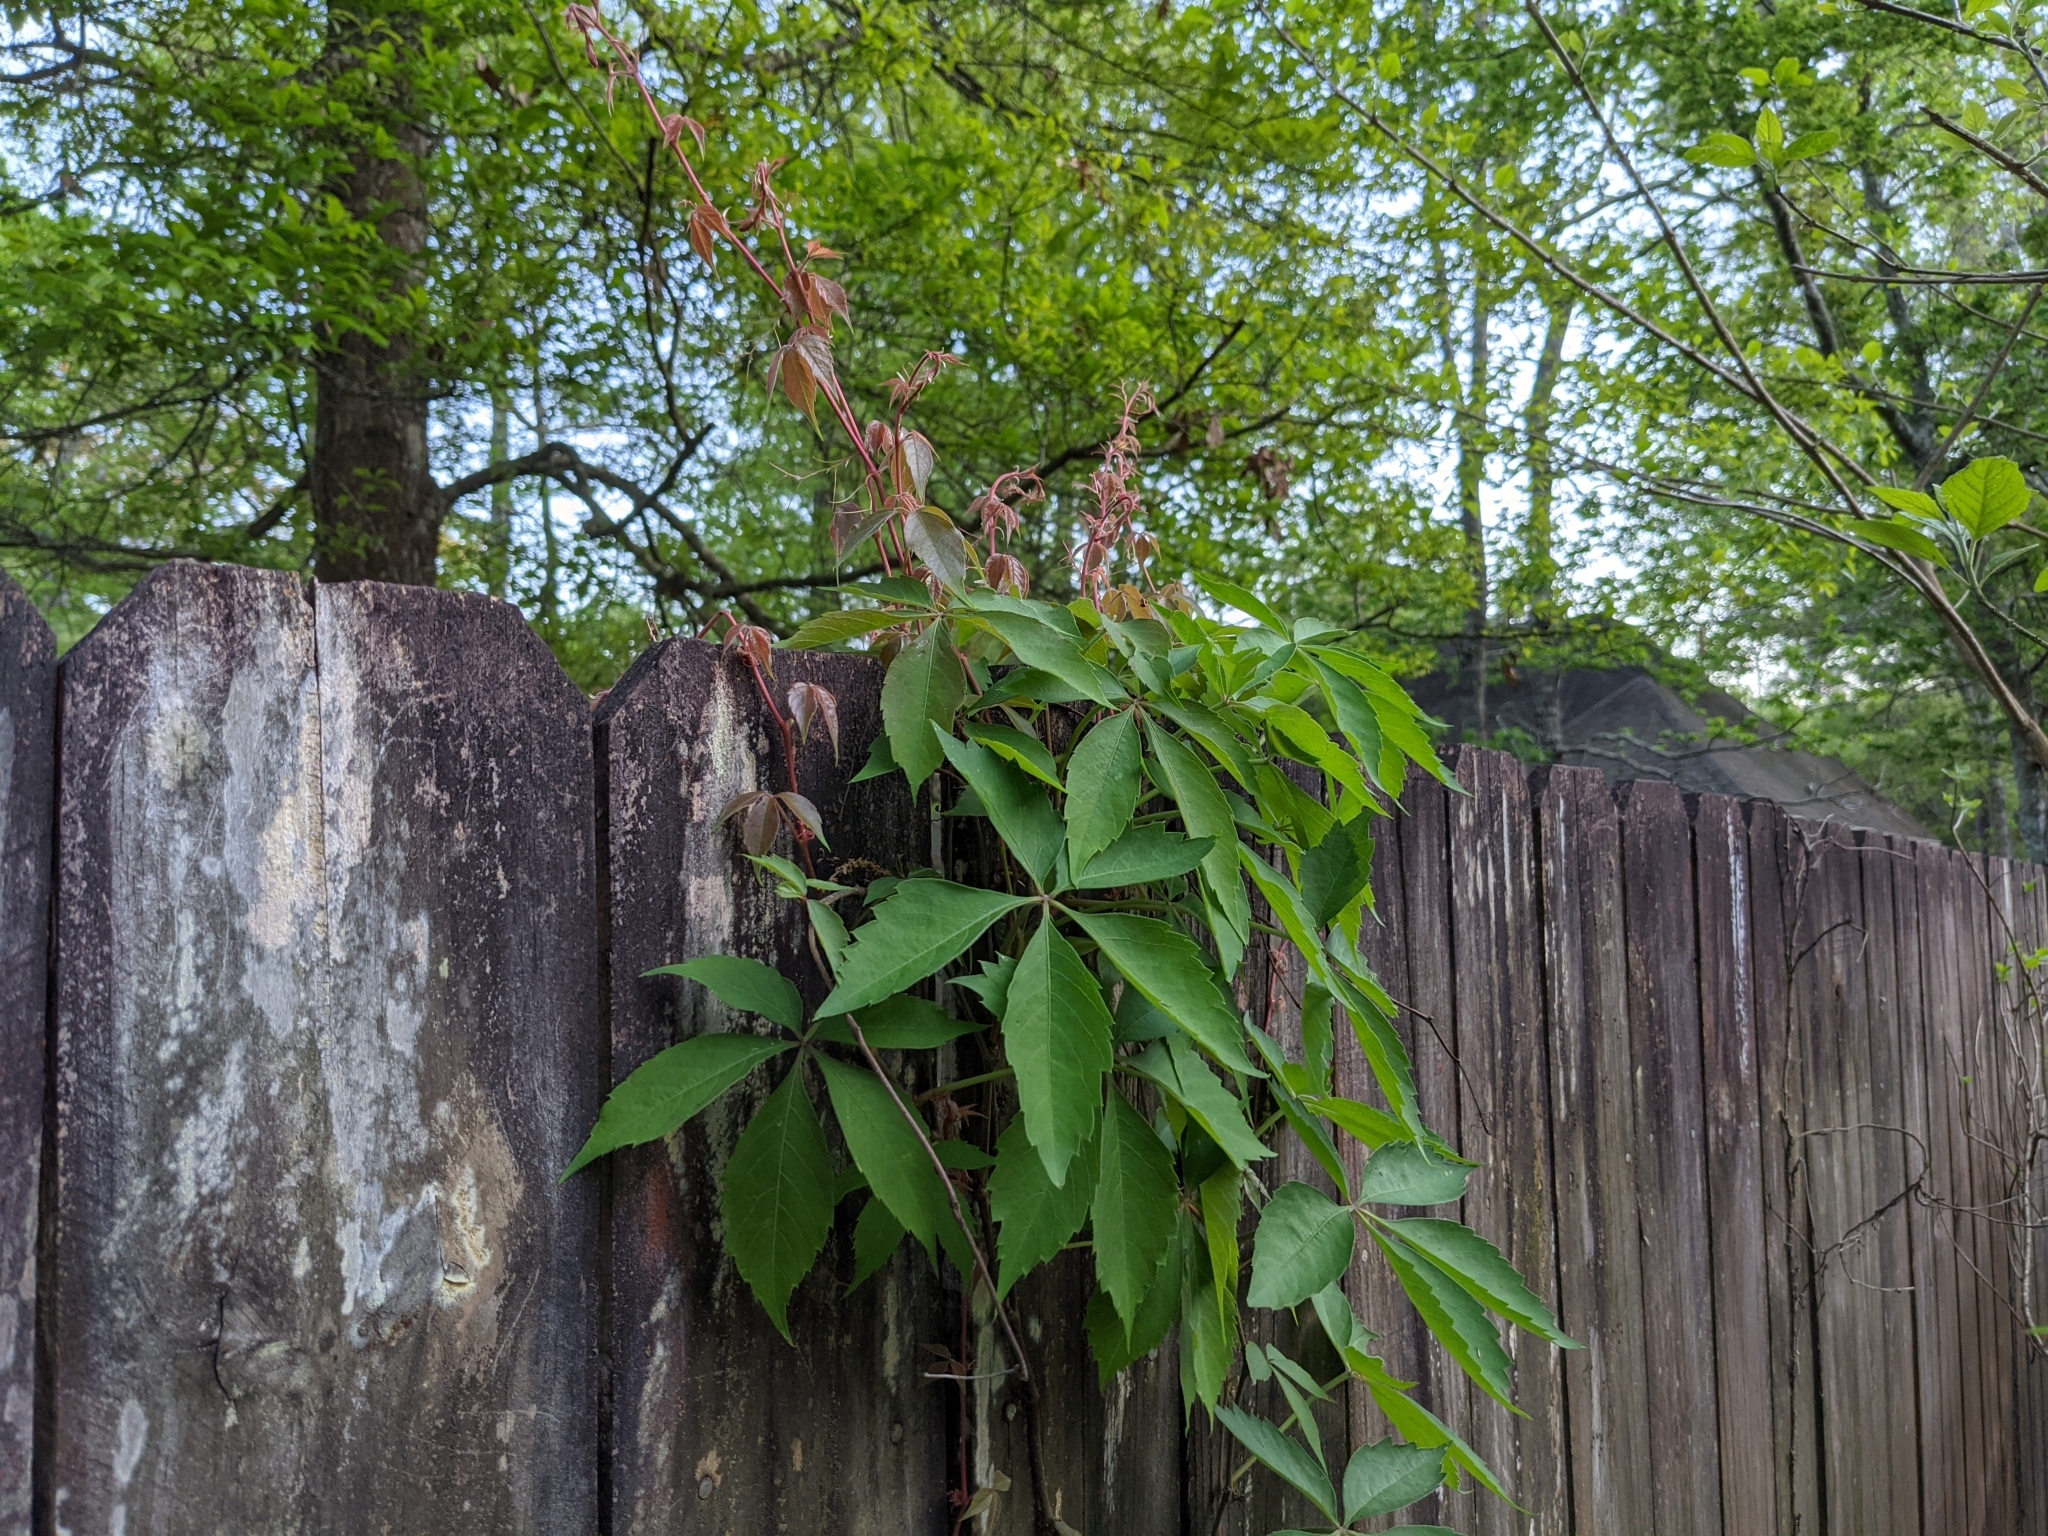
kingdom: Plantae
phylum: Tracheophyta
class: Magnoliopsida
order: Vitales
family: Vitaceae
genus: Parthenocissus
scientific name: Parthenocissus quinquefolia
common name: Virginia-creeper
